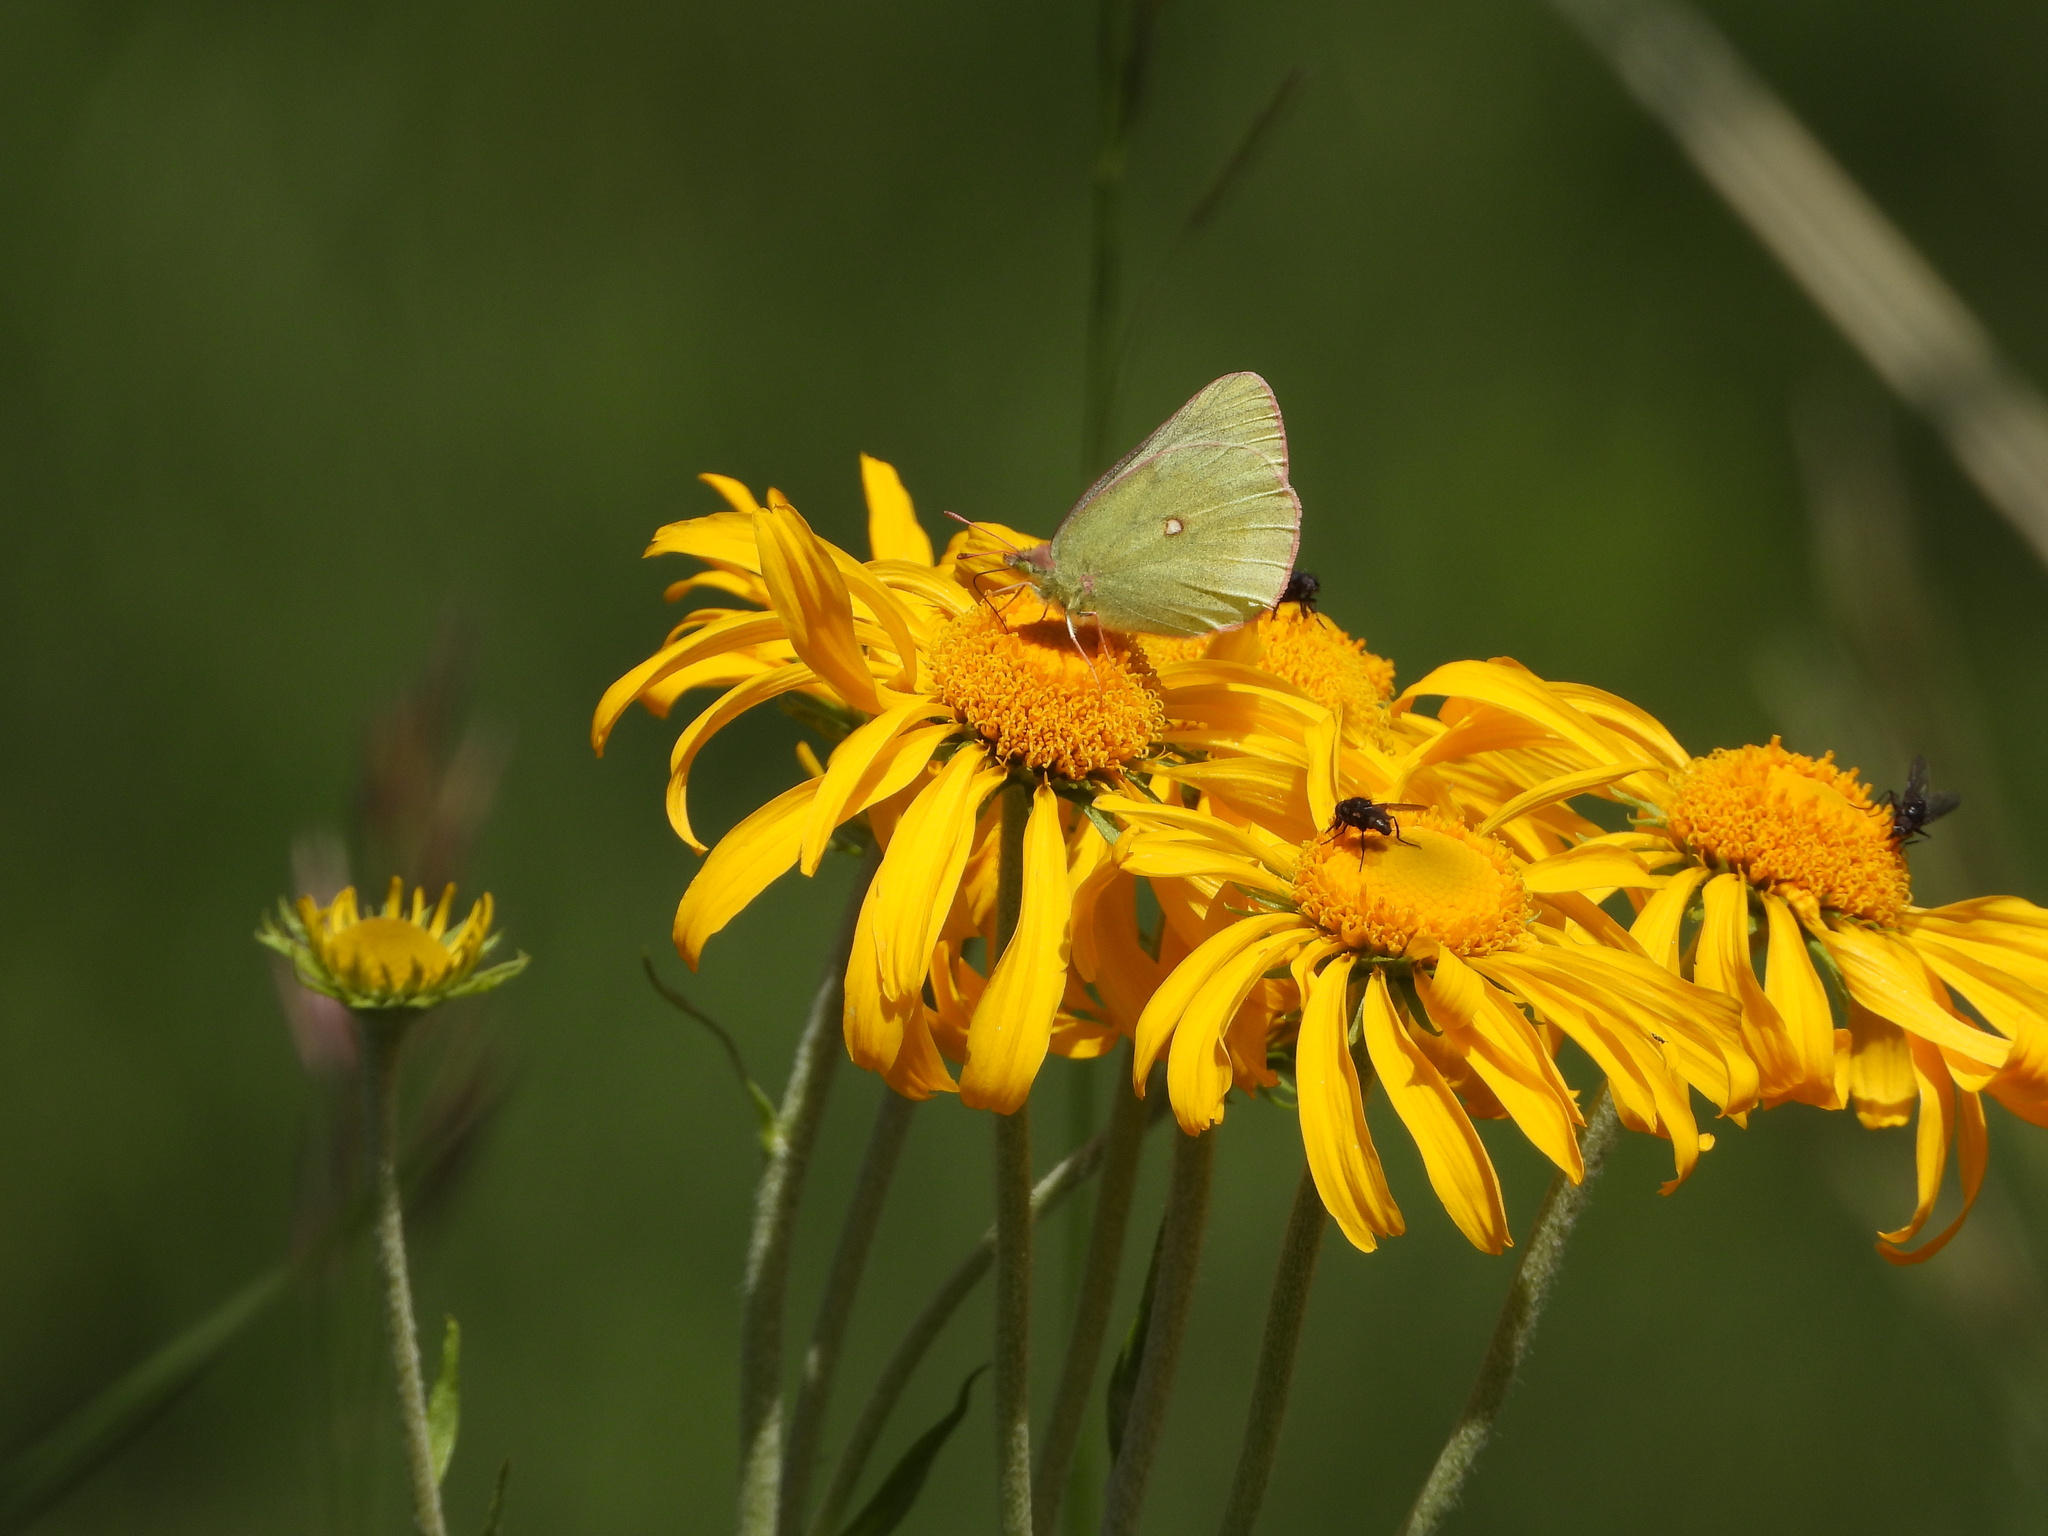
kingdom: Plantae
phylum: Tracheophyta
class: Magnoliopsida
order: Asterales
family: Asteraceae
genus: Hymenoxys
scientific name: Hymenoxys hoopesii
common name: Orange-sneezeweed
